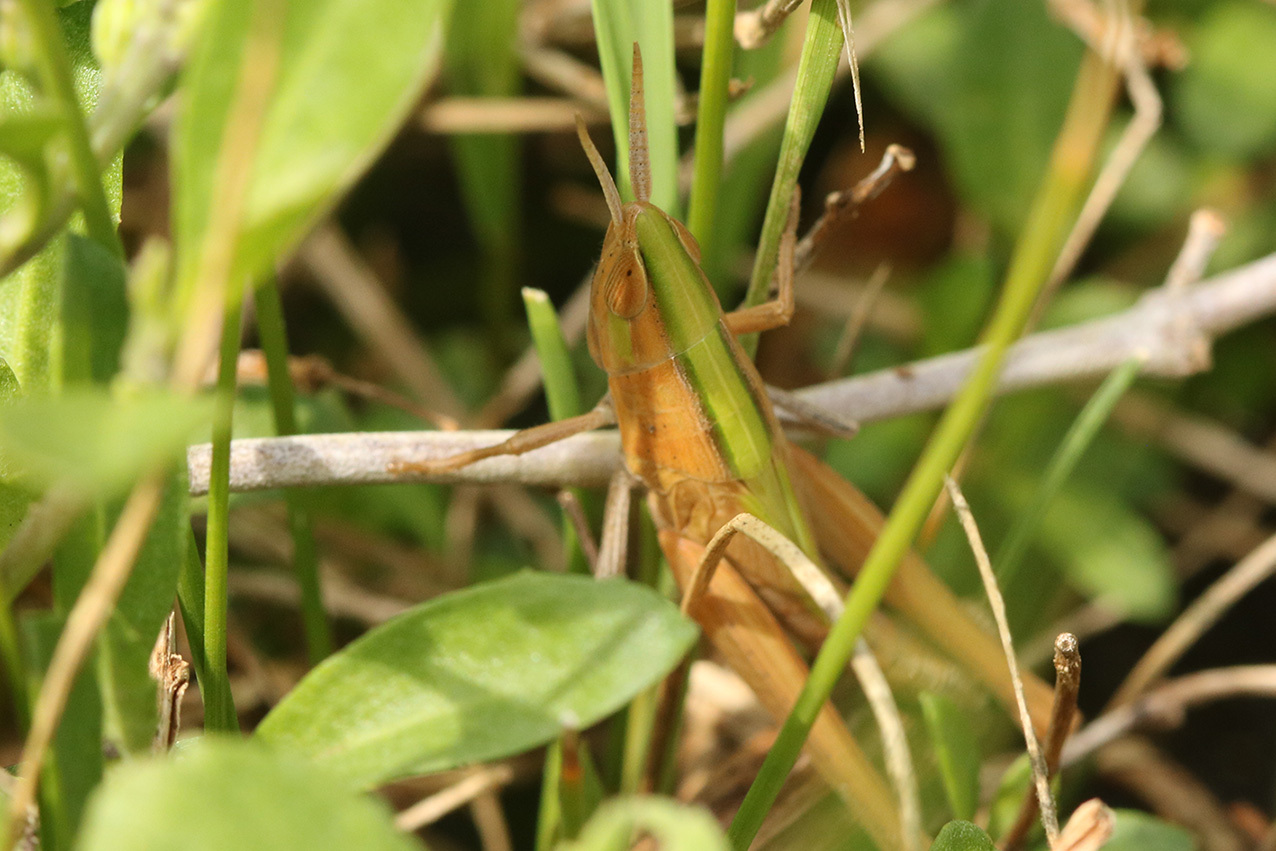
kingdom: Animalia
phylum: Arthropoda
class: Insecta
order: Orthoptera
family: Acrididae
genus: Sinipta
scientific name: Sinipta dalmani
